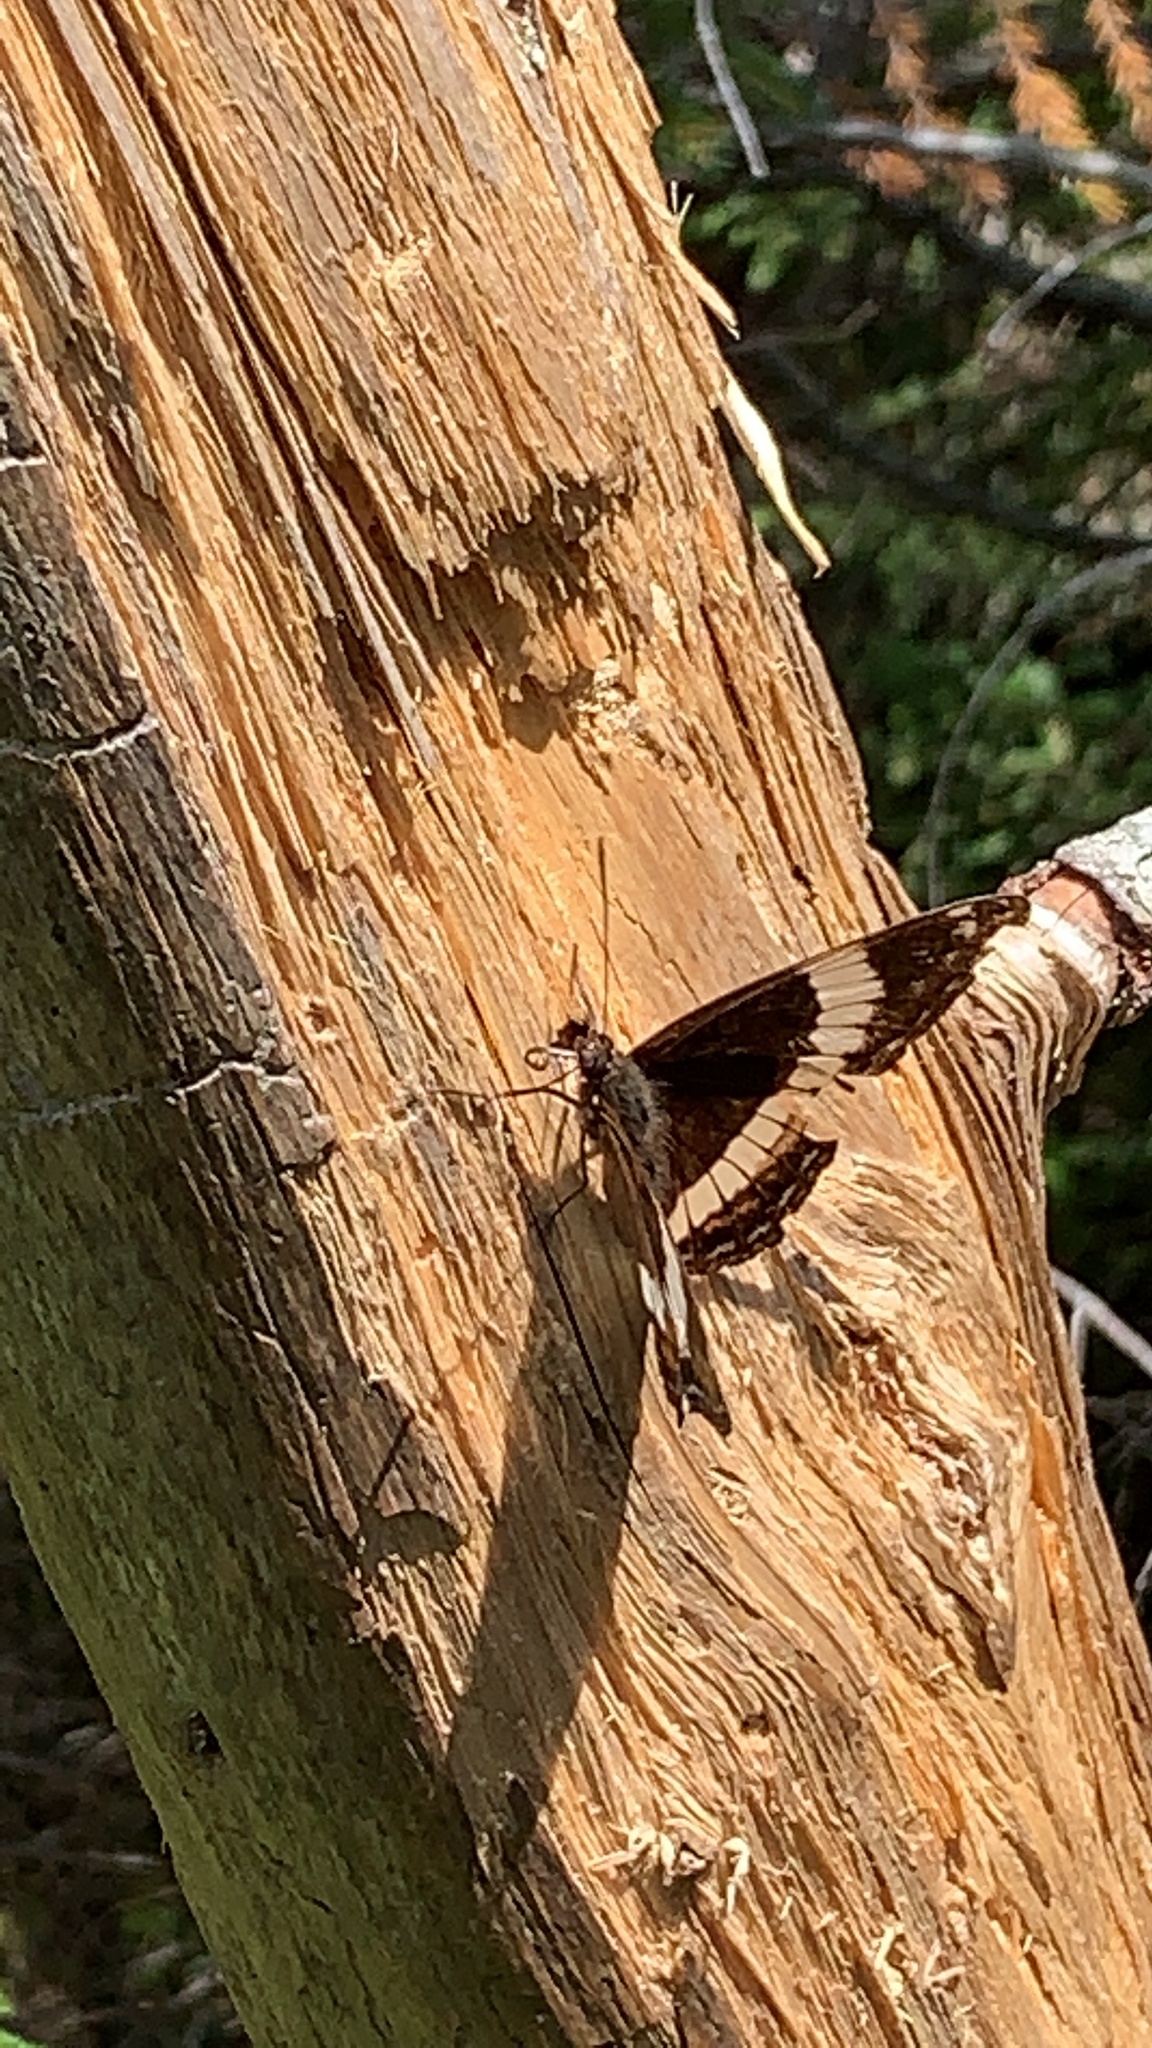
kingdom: Animalia
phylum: Arthropoda
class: Insecta
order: Lepidoptera
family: Nymphalidae
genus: Limenitis
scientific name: Limenitis arthemis
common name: Red-spotted admiral
